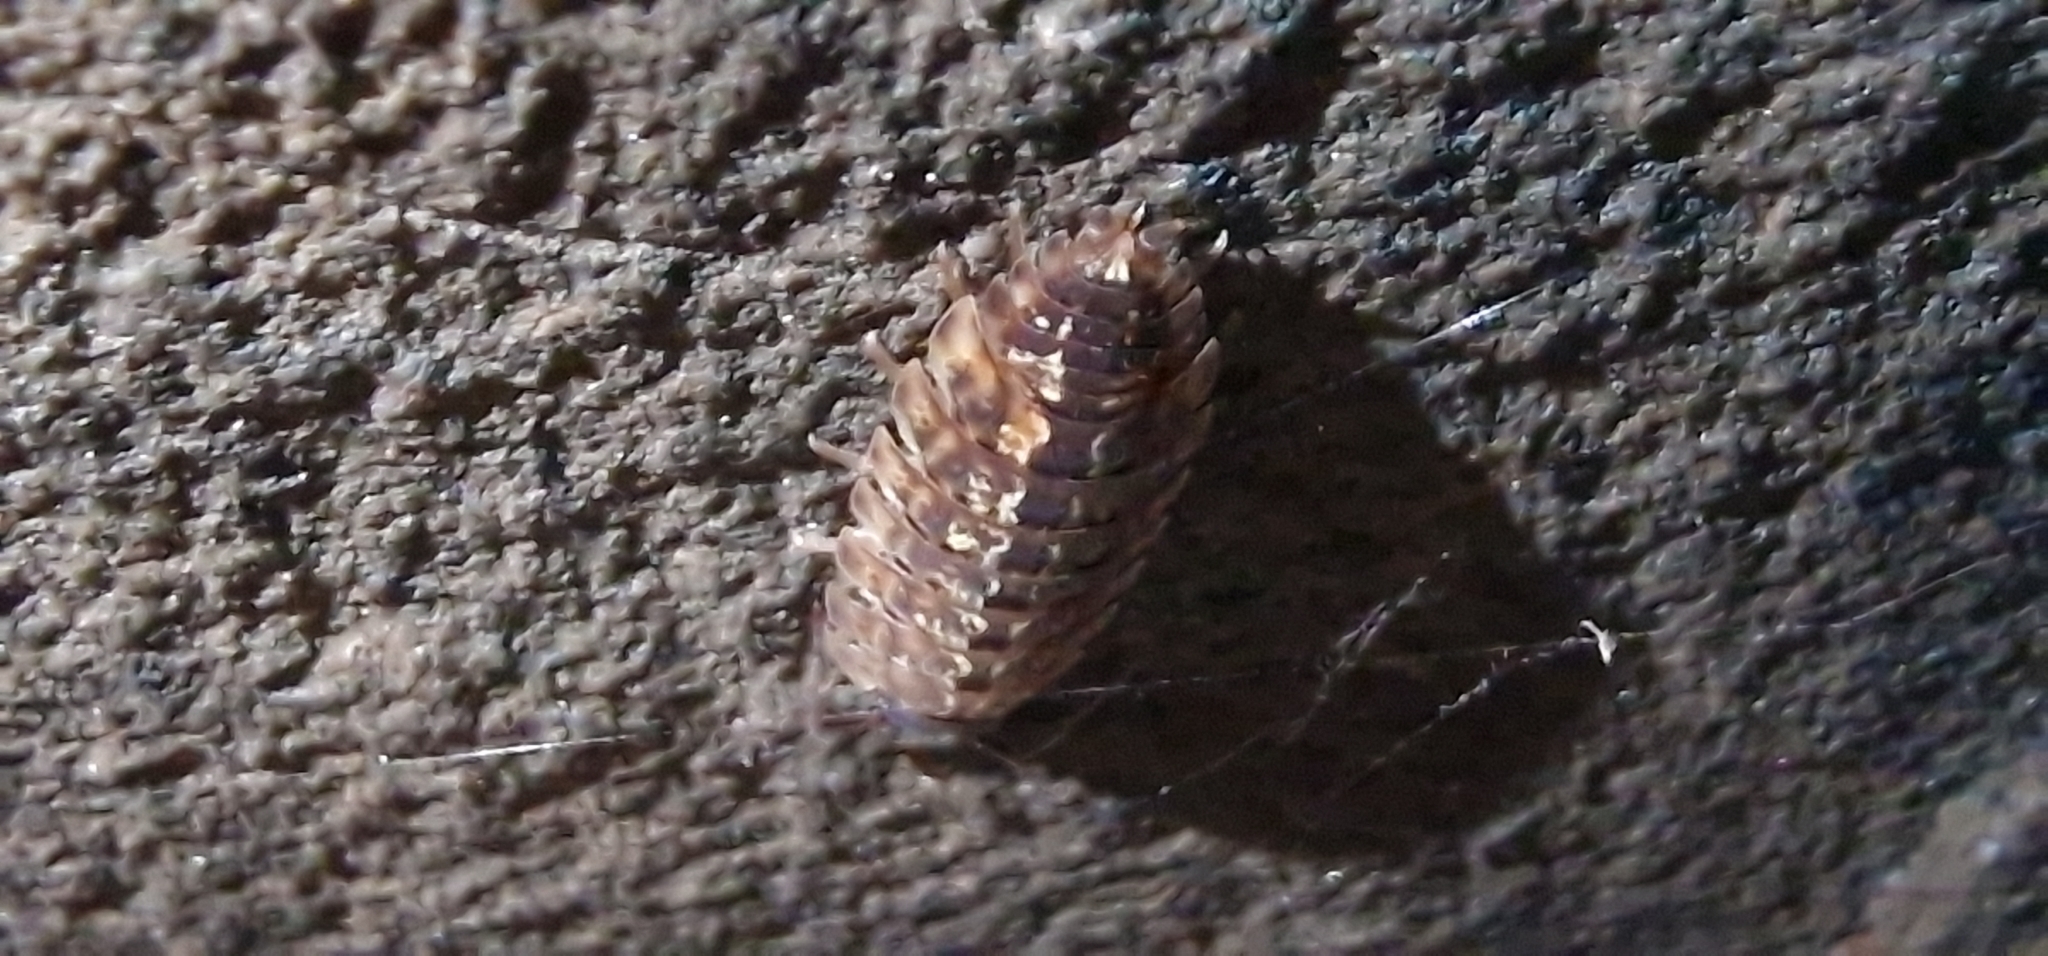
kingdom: Animalia
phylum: Arthropoda
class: Malacostraca
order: Isopoda
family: Porcellionidae
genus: Porcellio
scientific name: Porcellio spinicornis
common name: Painted woodlouse
